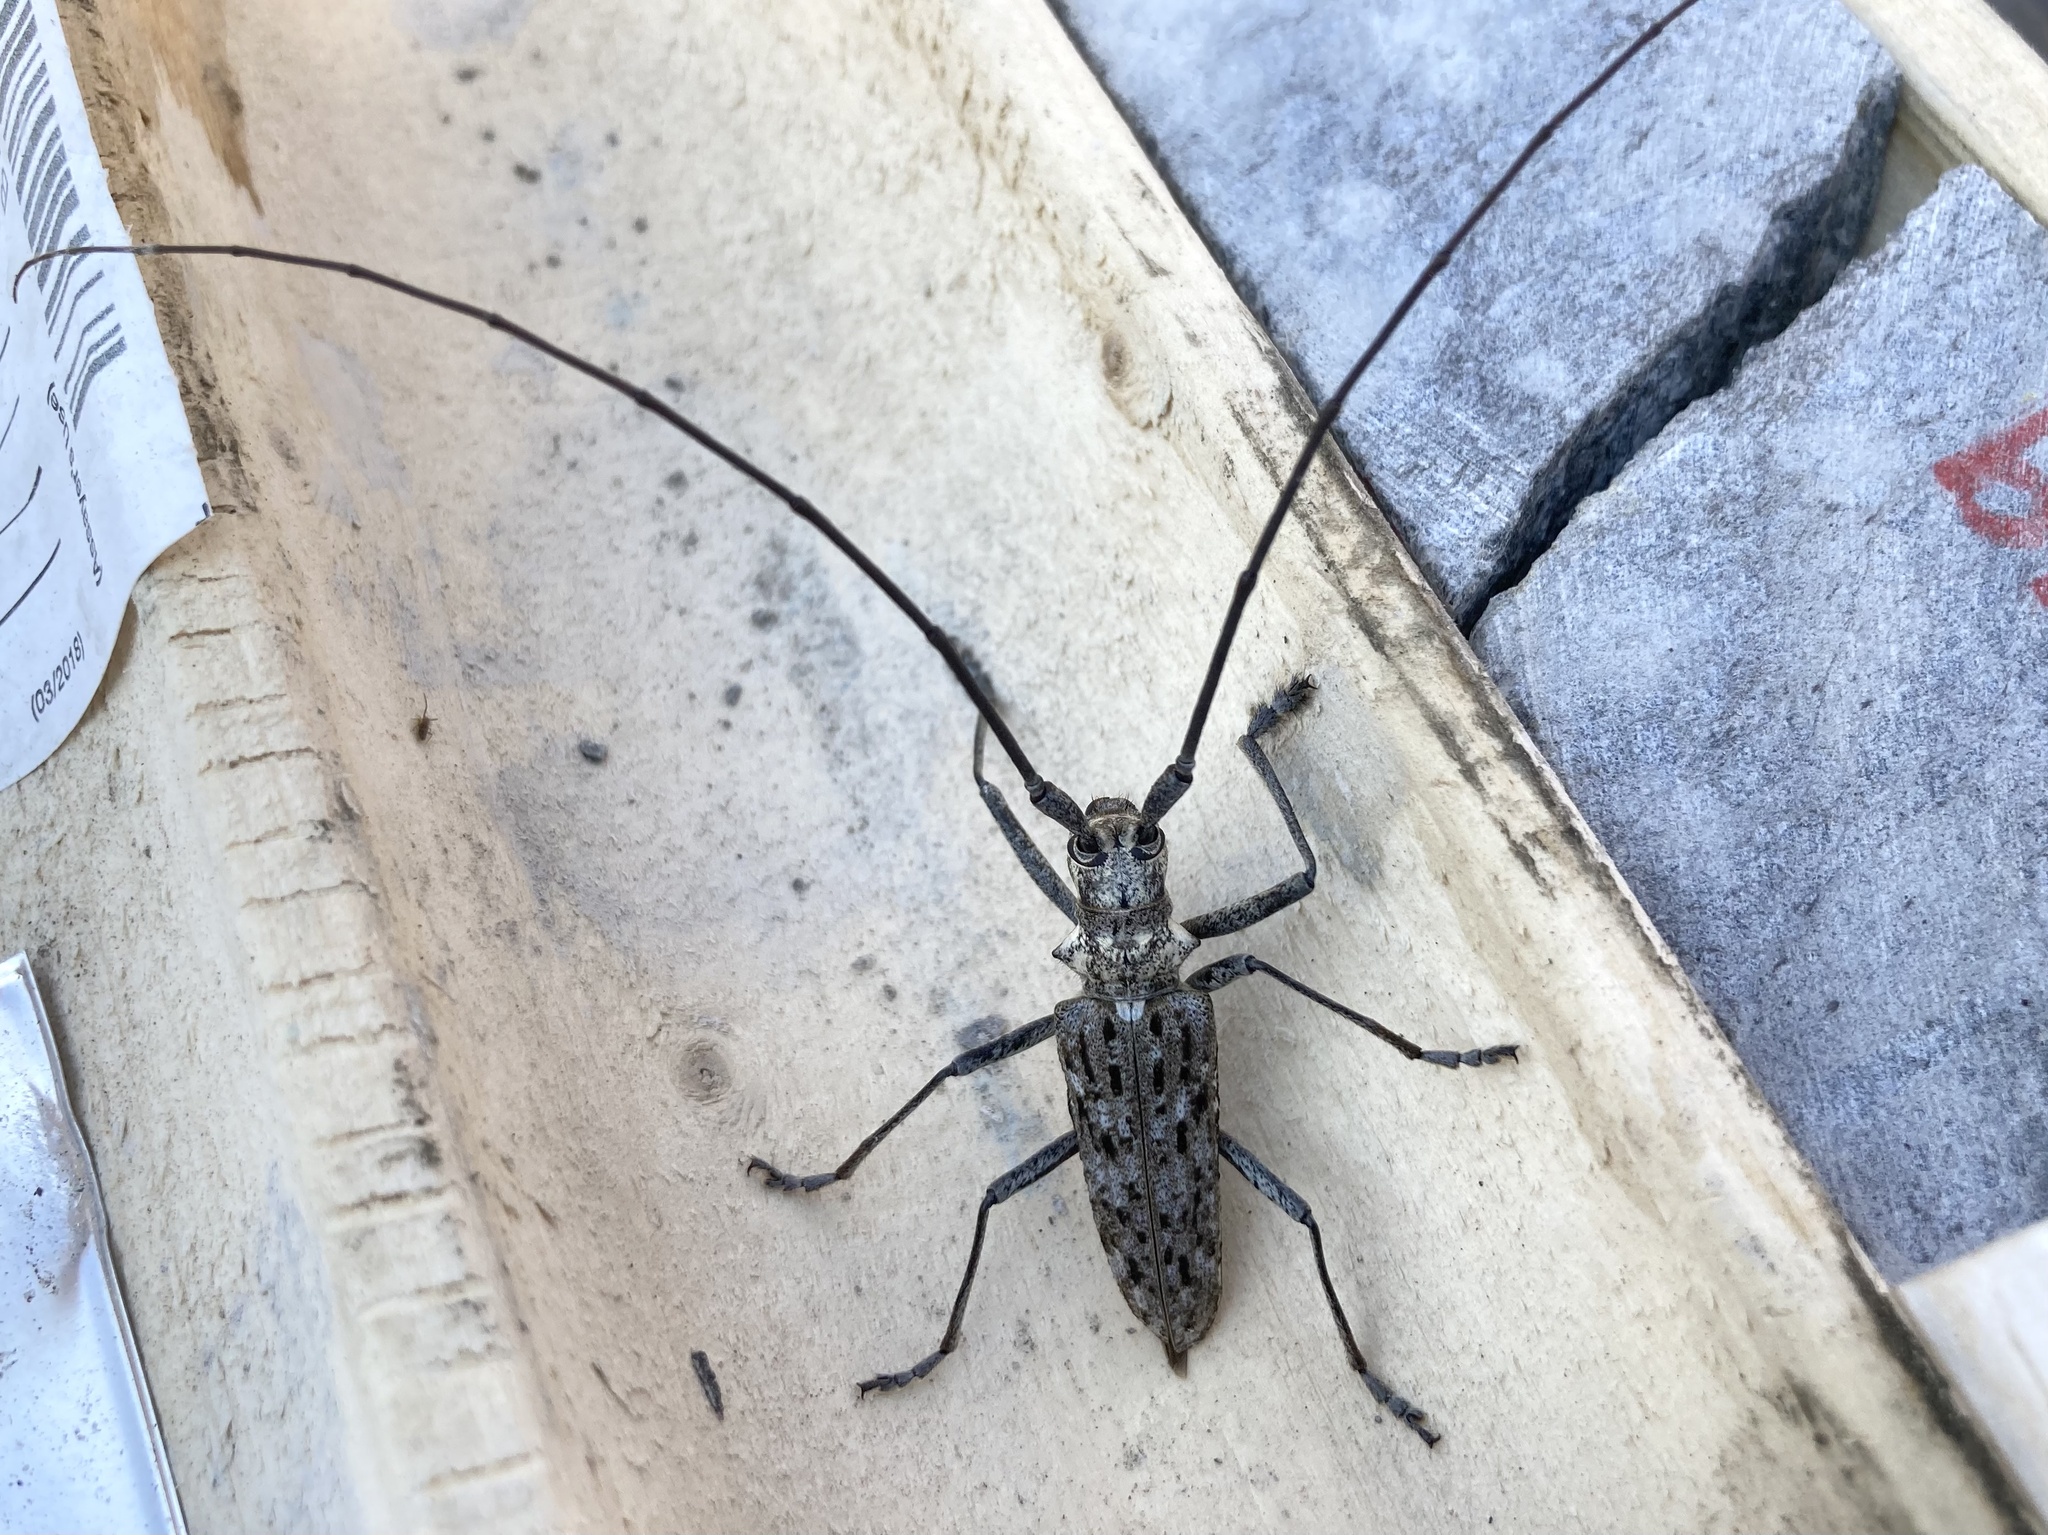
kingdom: Animalia
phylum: Arthropoda
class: Insecta
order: Coleoptera
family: Cerambycidae
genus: Monochamus
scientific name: Monochamus notatus
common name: Northeastern pine sawyer beetle
